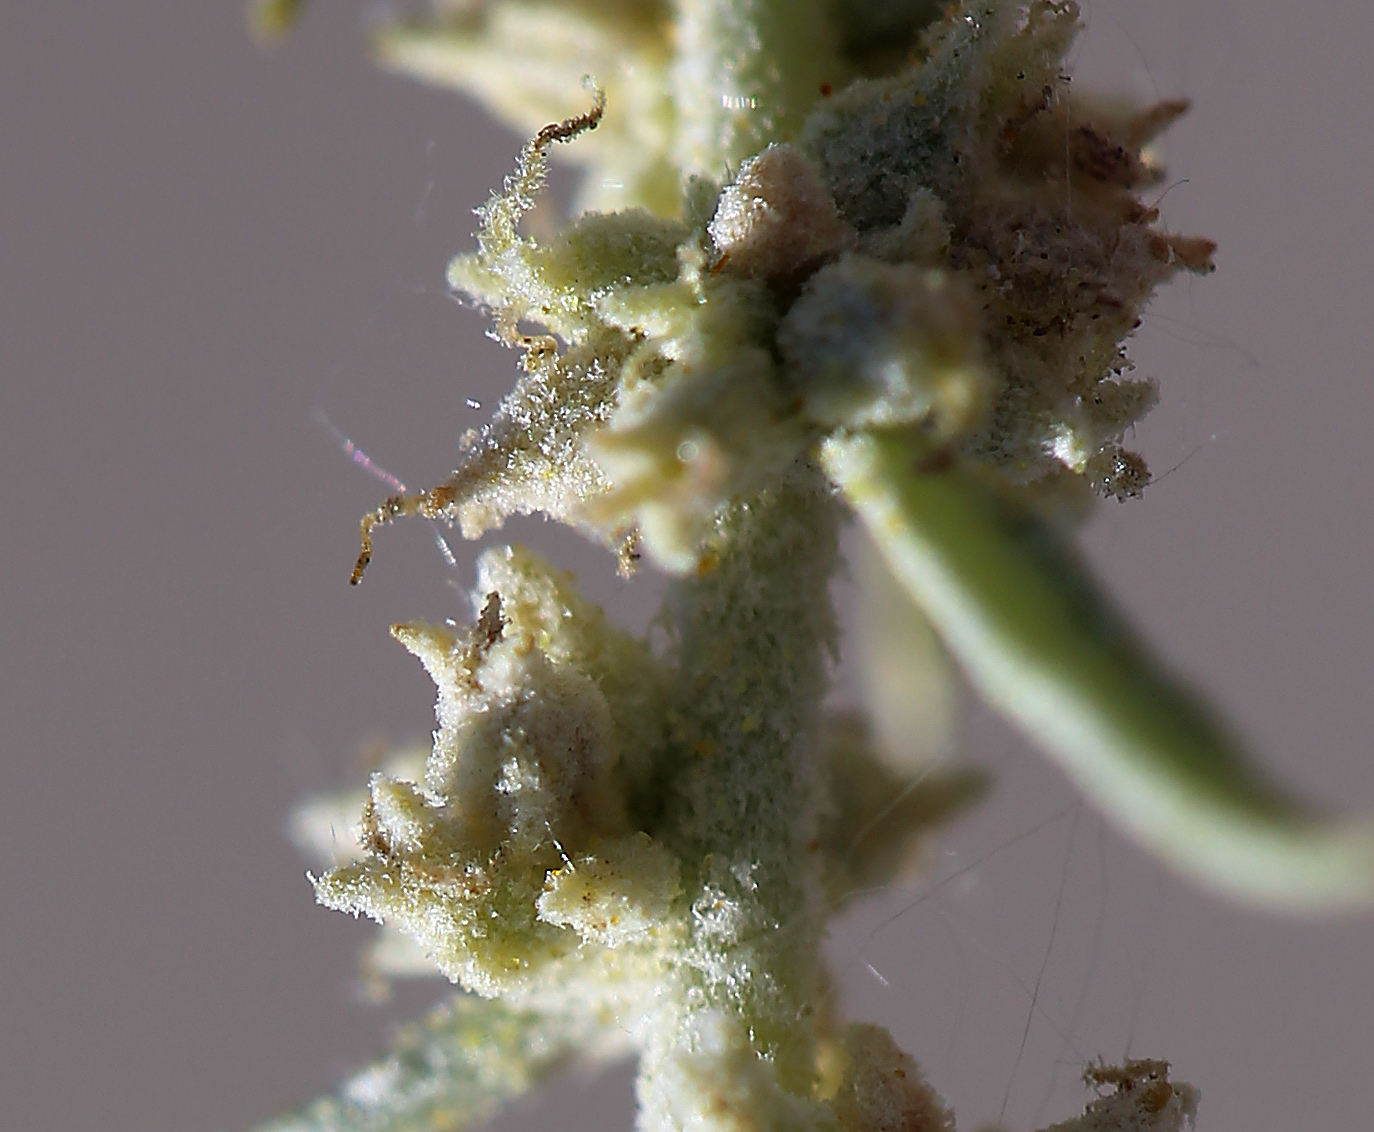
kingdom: Plantae
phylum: Tracheophyta
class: Magnoliopsida
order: Caryophyllales
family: Amaranthaceae
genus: Atriplex
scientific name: Atriplex canescens
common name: Four-wing saltbush
